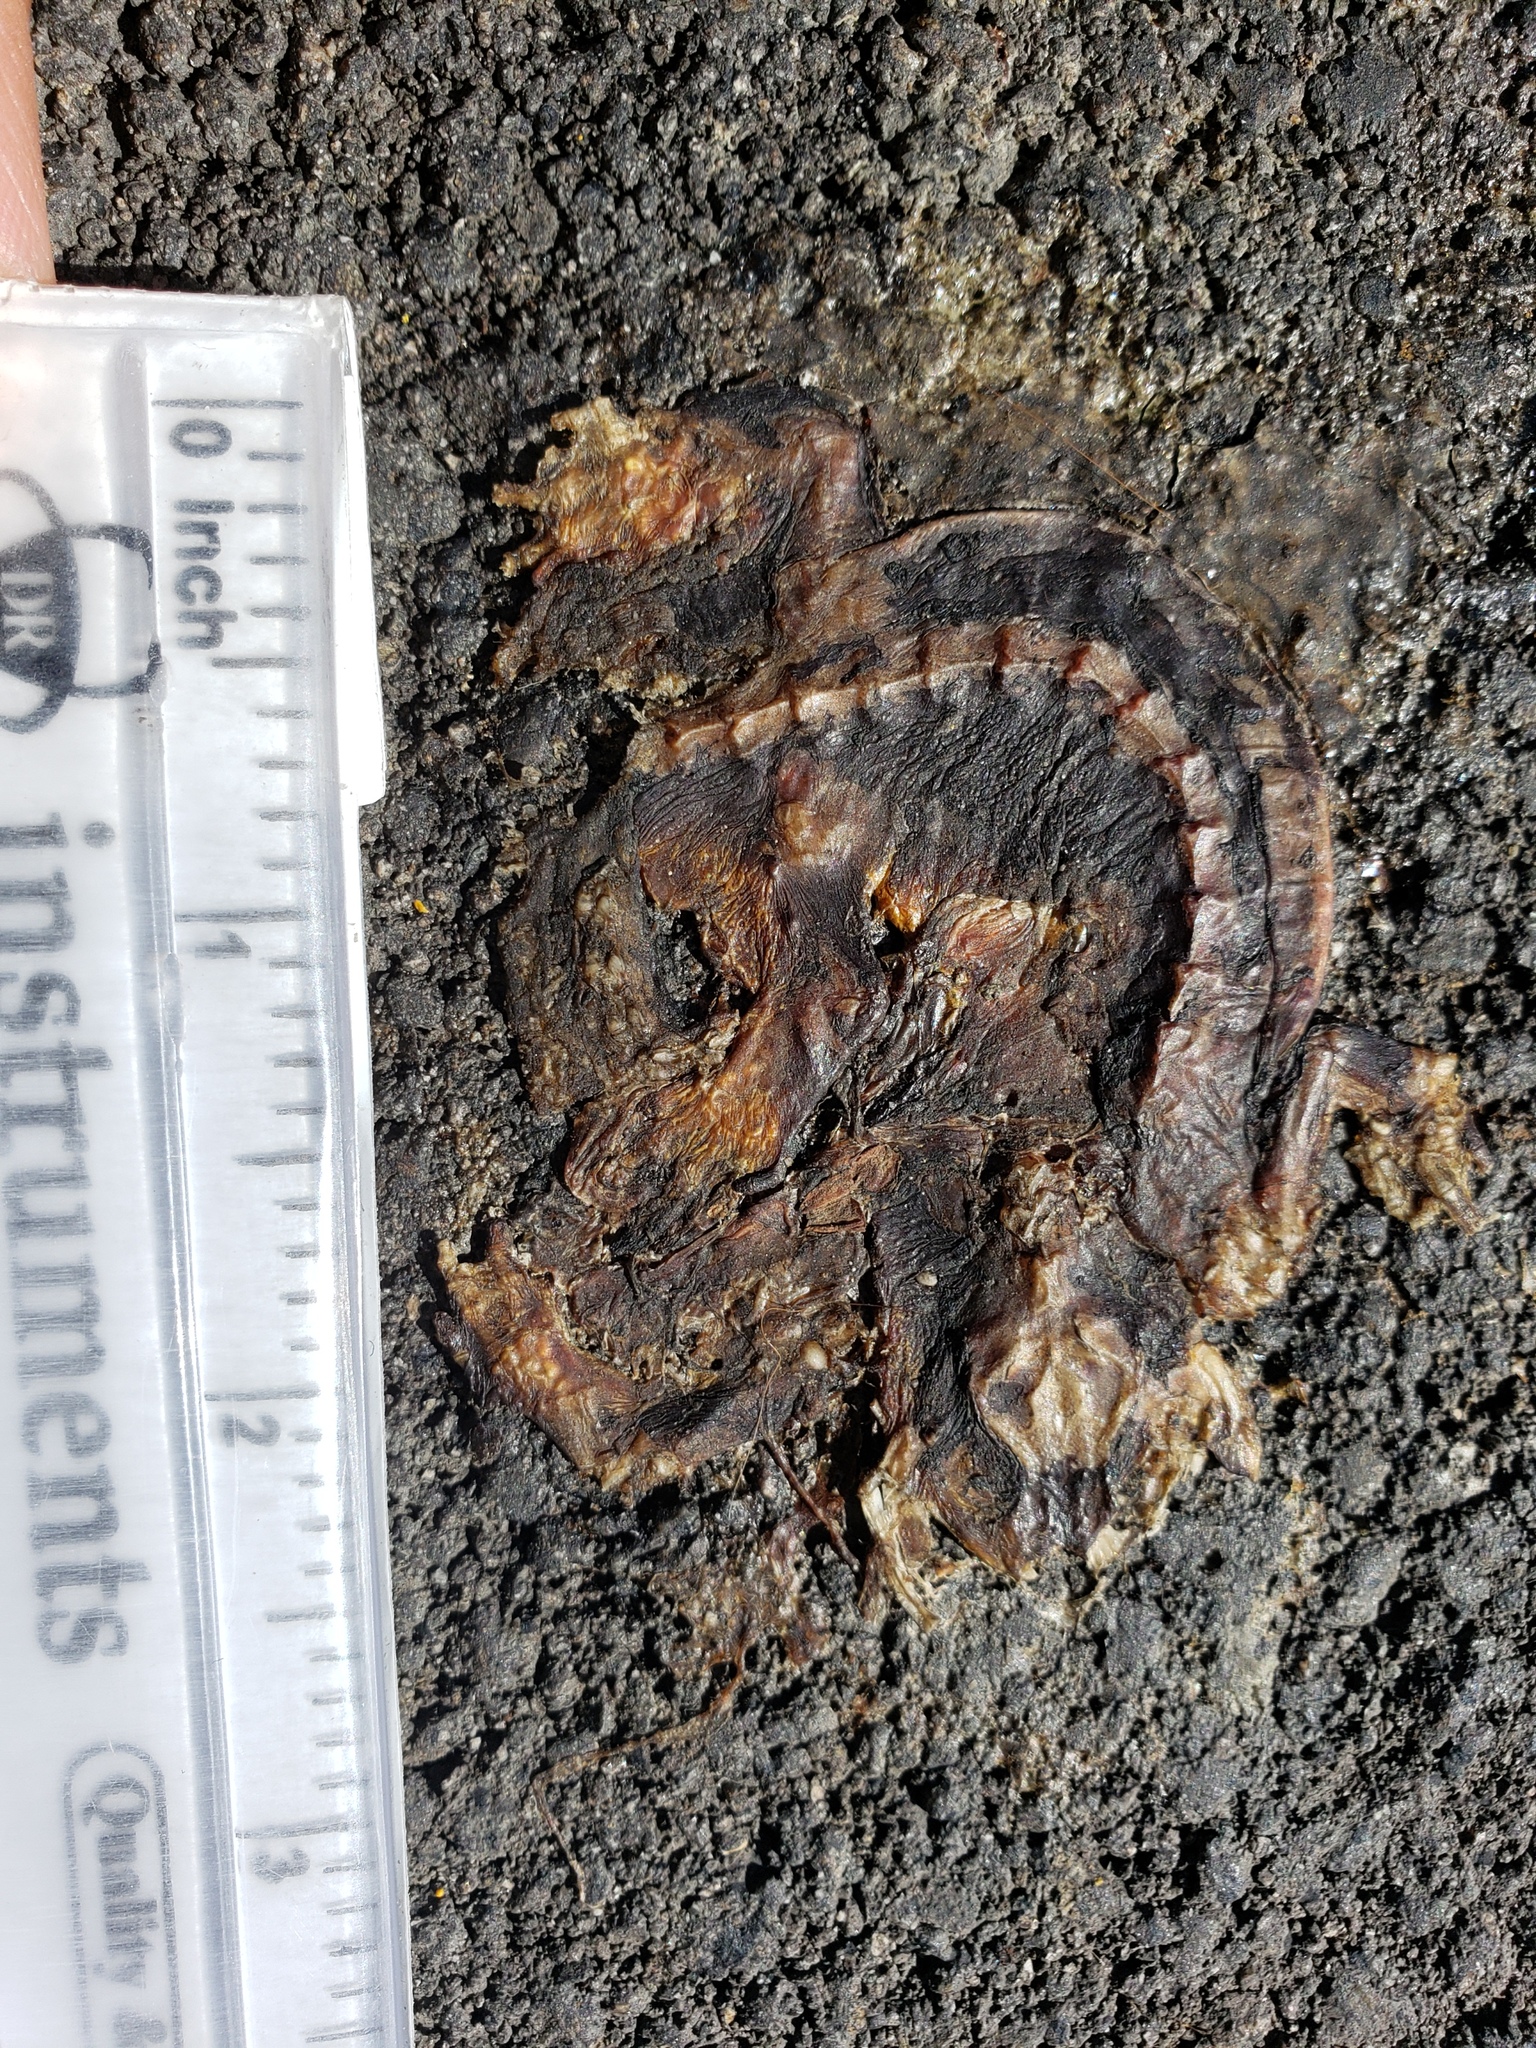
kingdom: Animalia
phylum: Chordata
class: Amphibia
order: Caudata
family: Salamandridae
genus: Taricha
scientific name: Taricha
